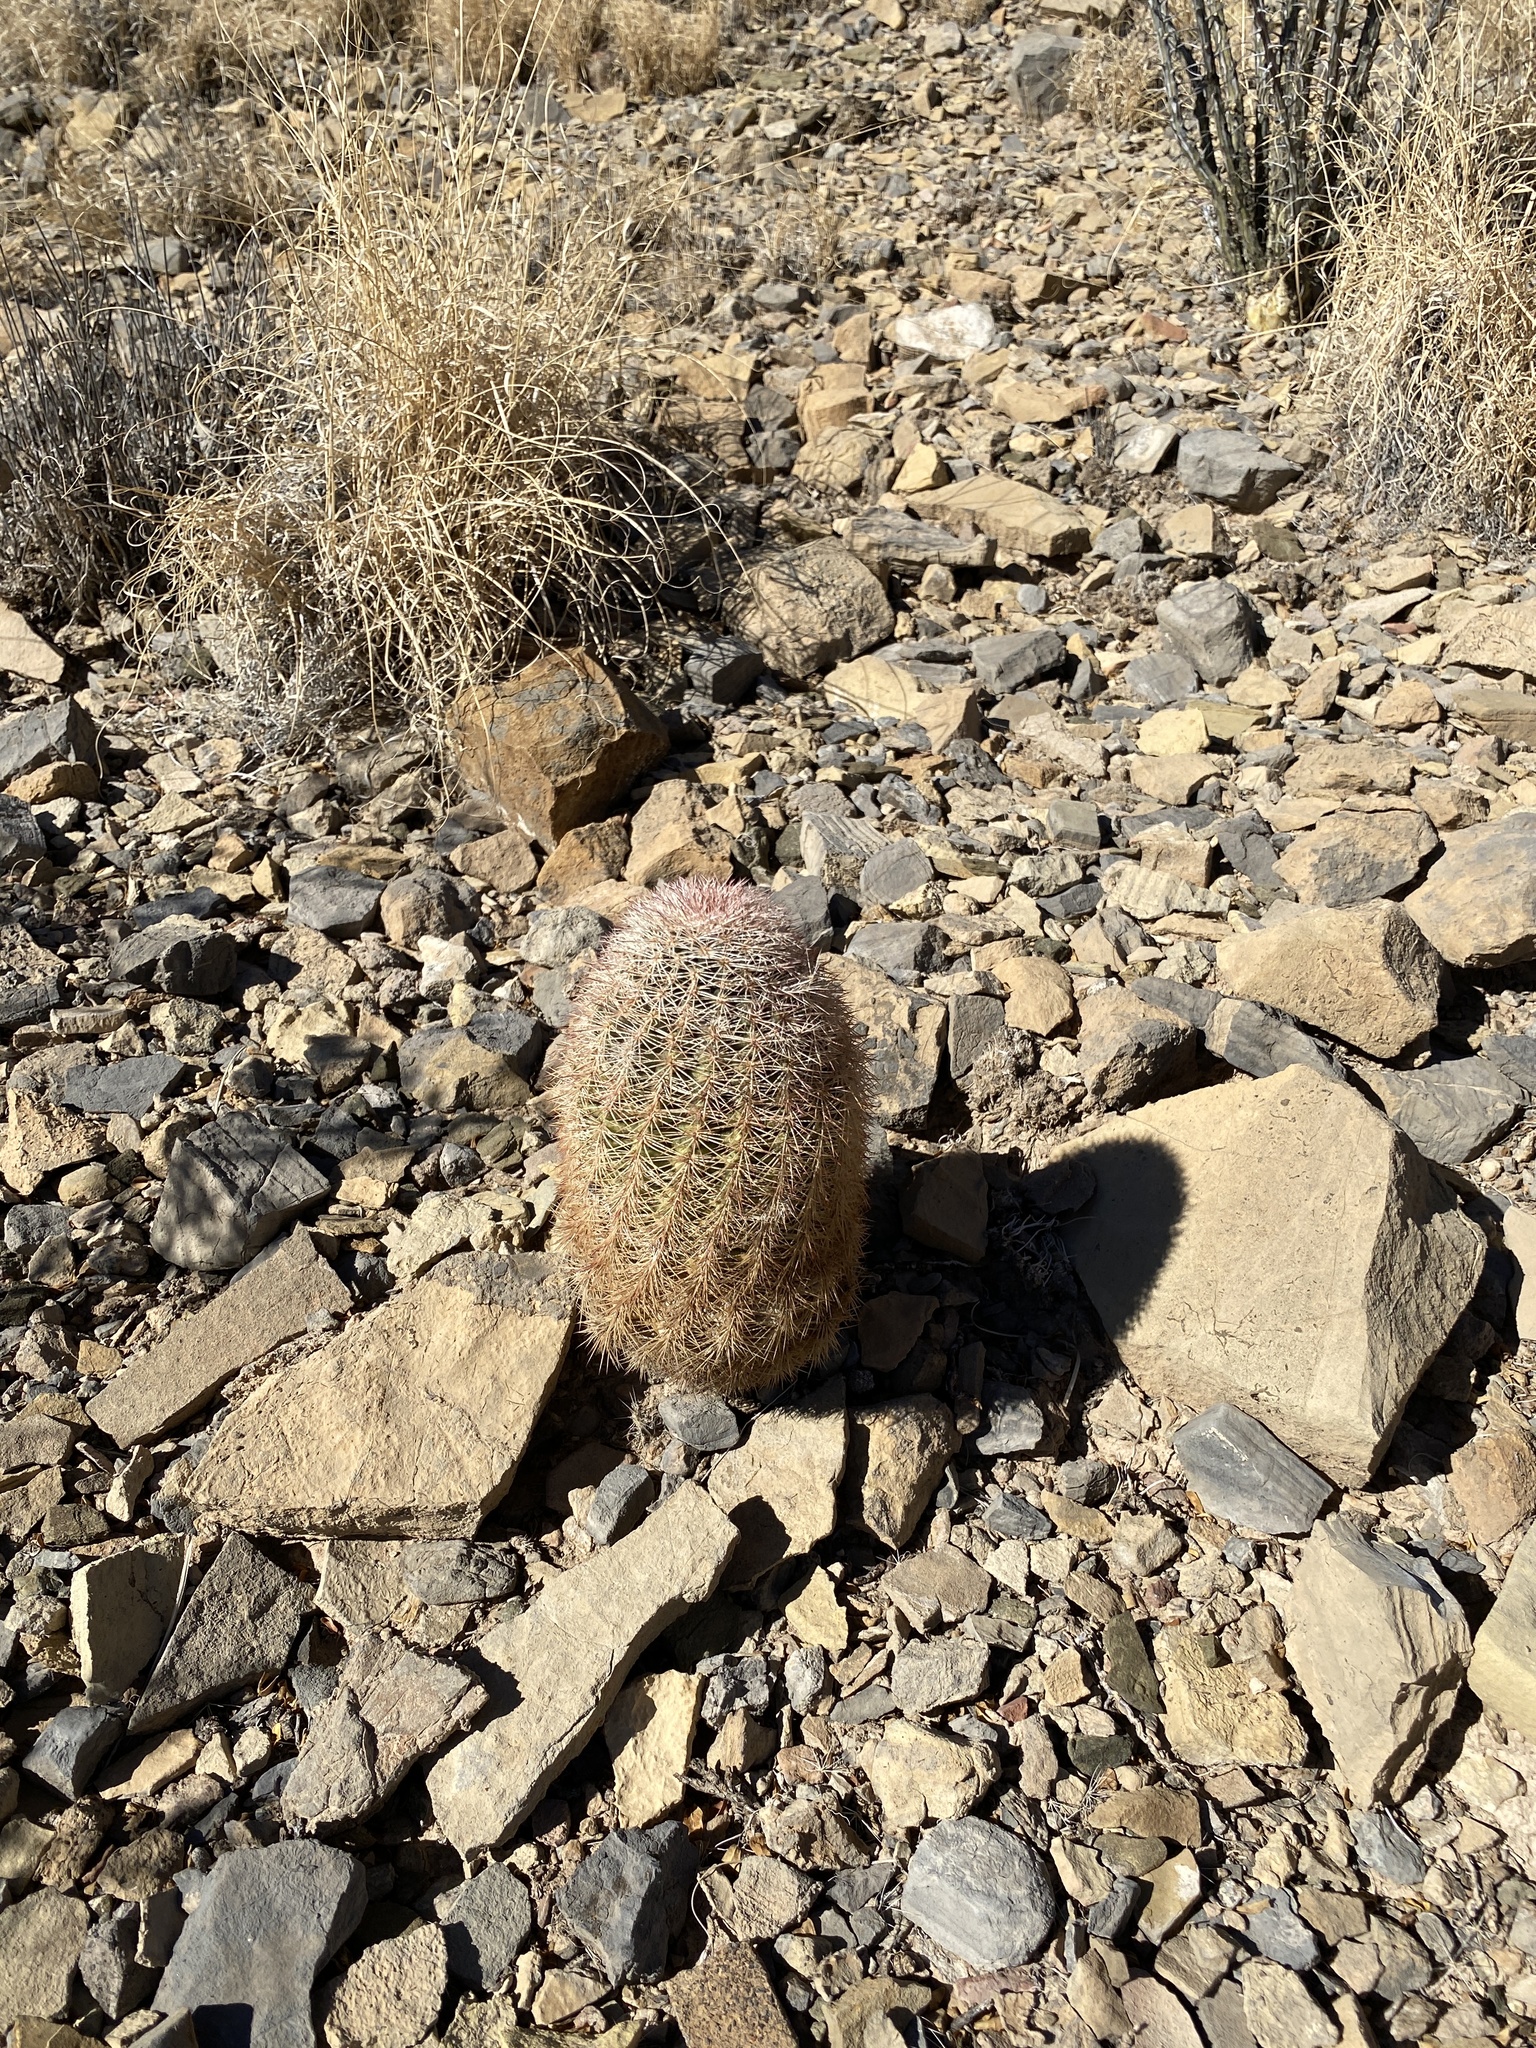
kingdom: Plantae
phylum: Tracheophyta
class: Magnoliopsida
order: Caryophyllales
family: Cactaceae
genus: Echinocereus
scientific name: Echinocereus dasyacanthus
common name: Spiny hedgehog cactus
